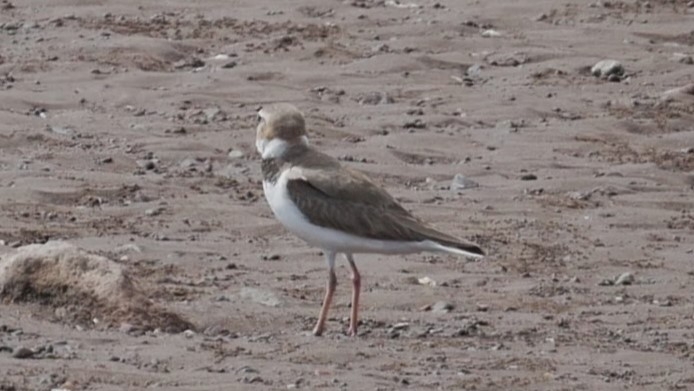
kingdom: Animalia
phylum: Chordata
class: Aves
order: Charadriiformes
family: Charadriidae
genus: Anarhynchus
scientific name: Anarhynchus
